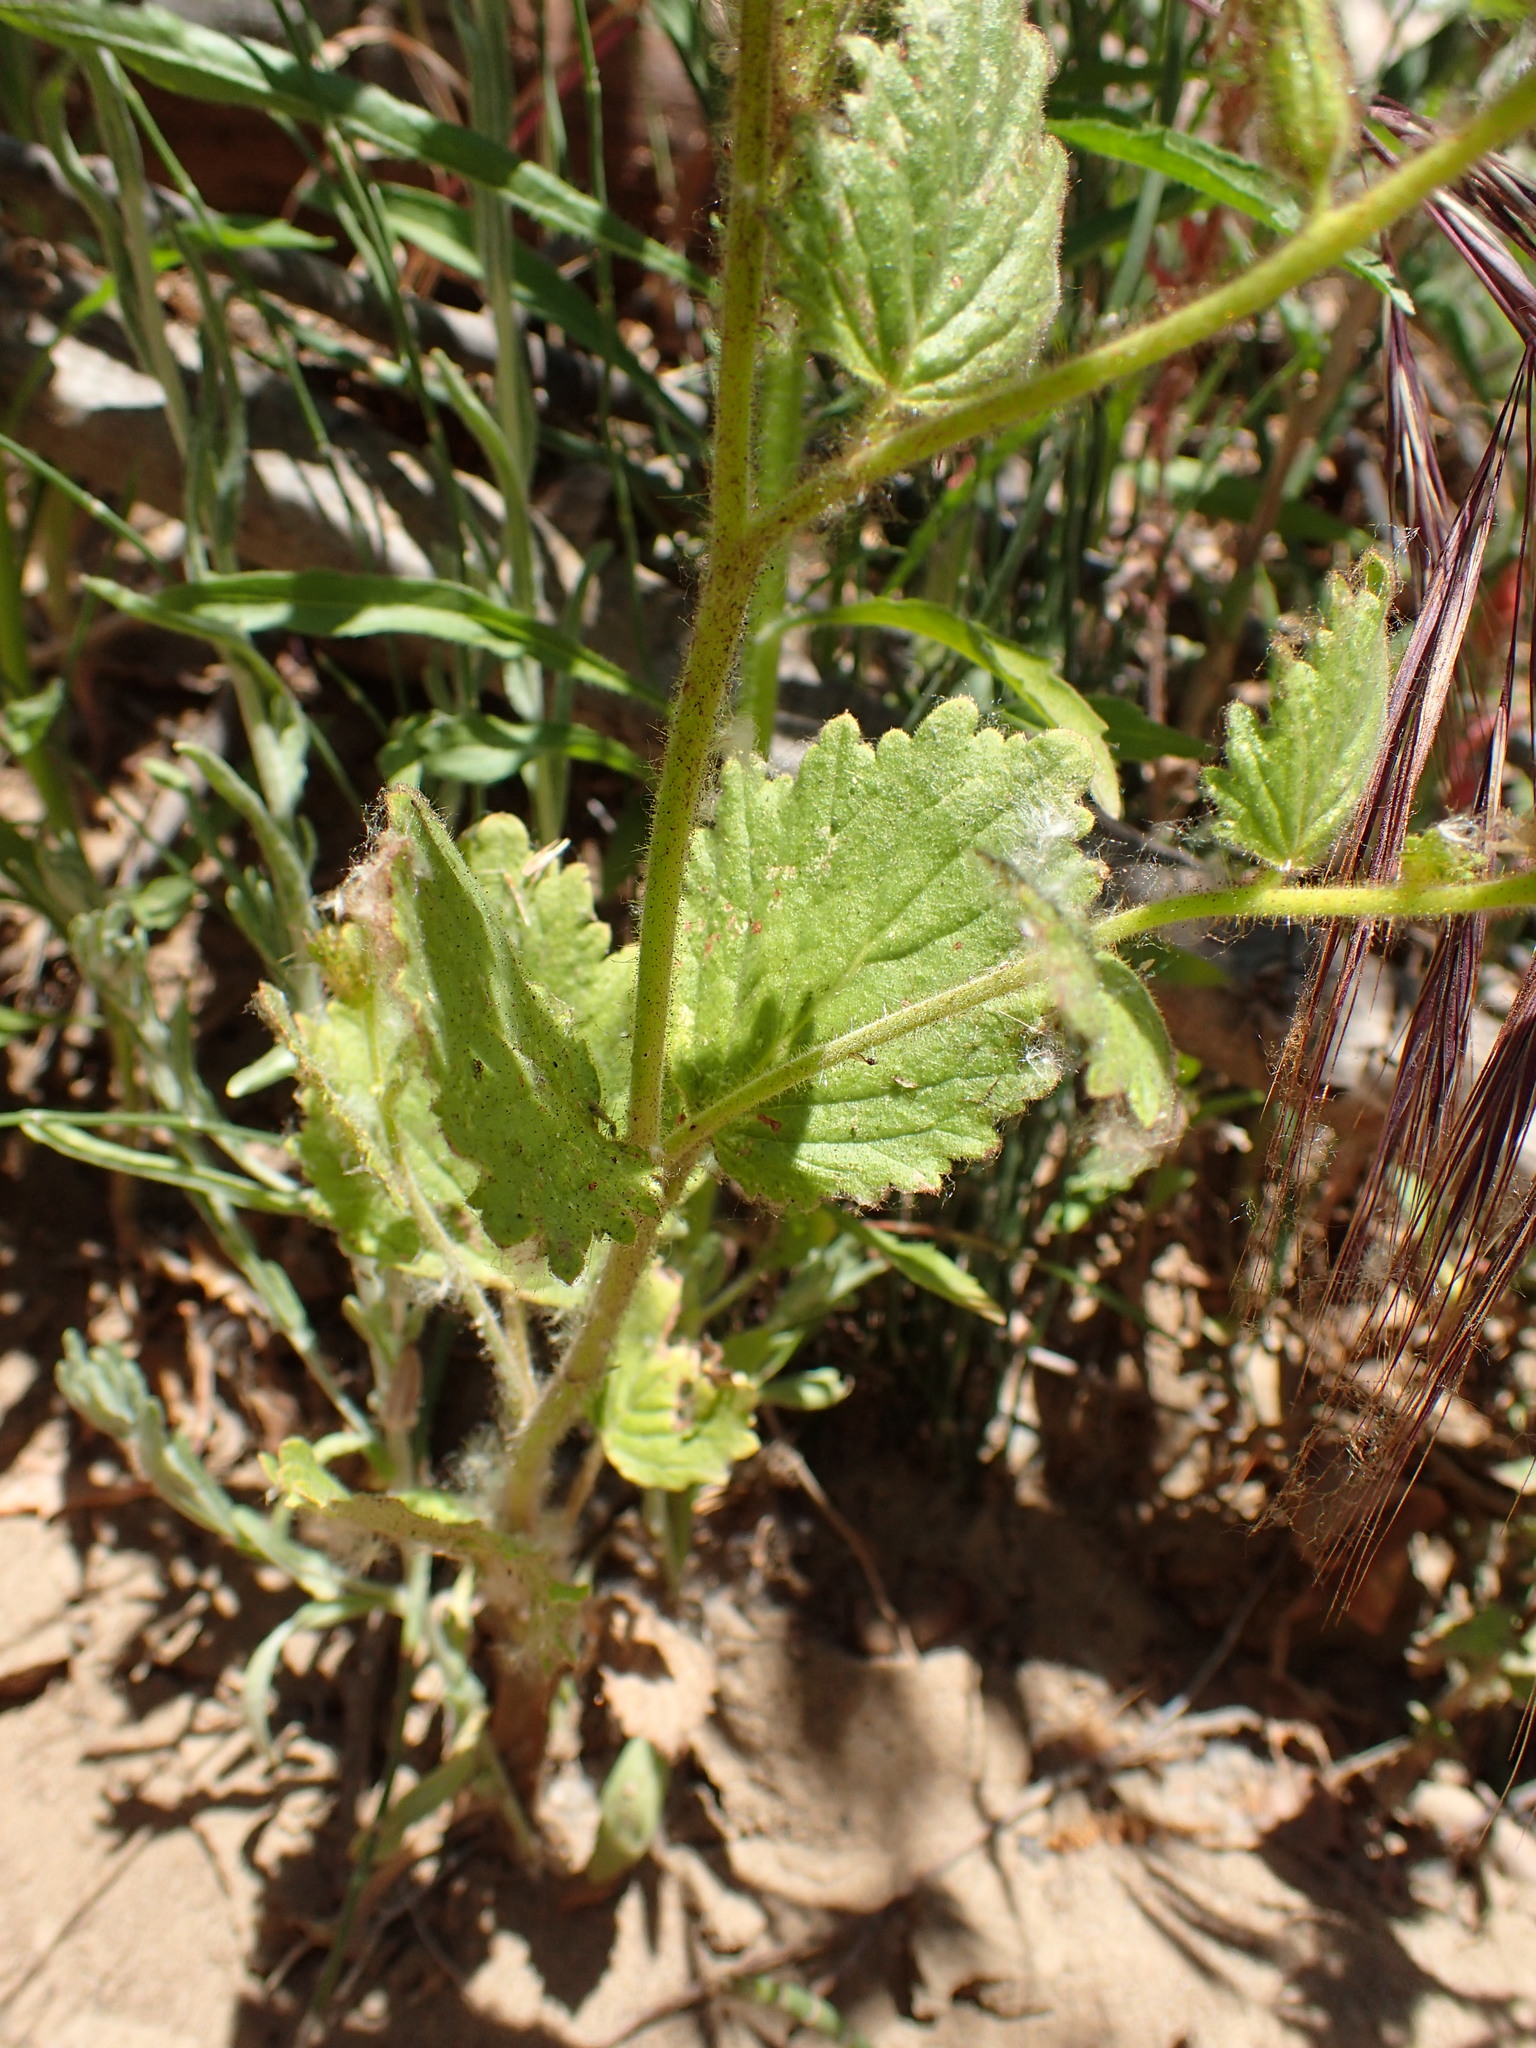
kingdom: Plantae
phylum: Tracheophyta
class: Magnoliopsida
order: Boraginales
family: Hydrophyllaceae
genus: Phacelia
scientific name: Phacelia grandiflora
